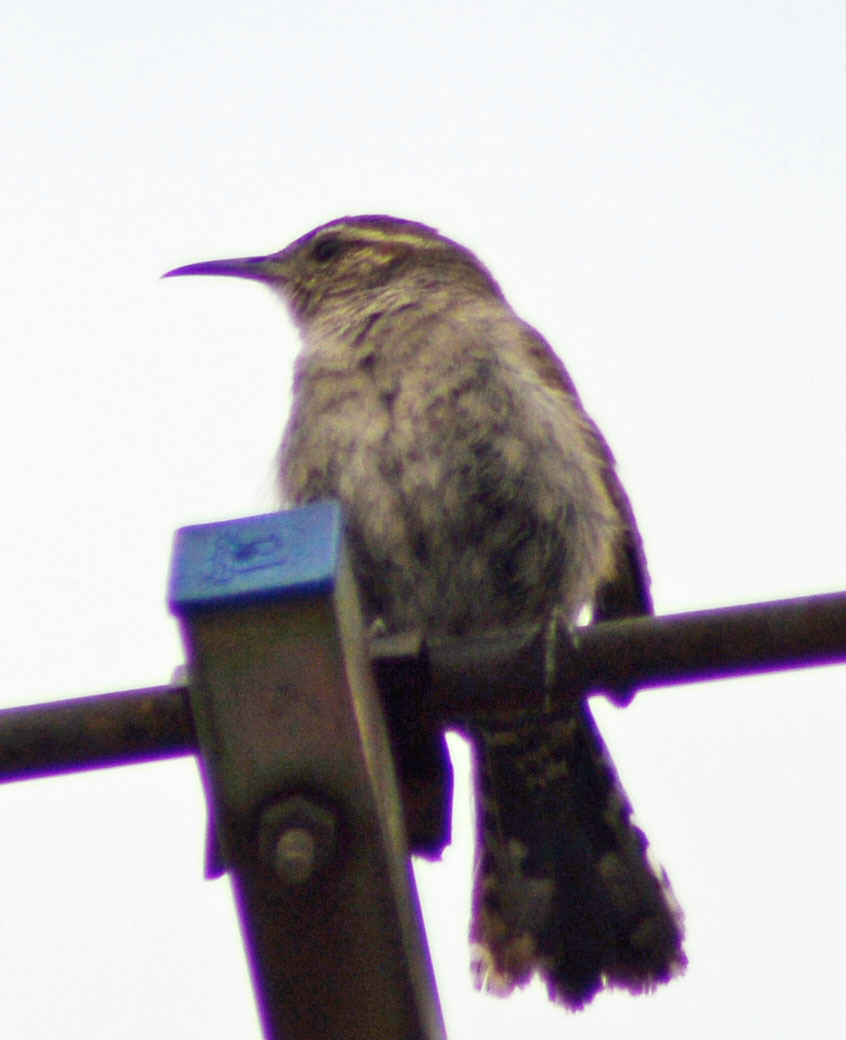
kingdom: Animalia
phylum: Chordata
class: Aves
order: Passeriformes
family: Troglodytidae
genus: Thryomanes
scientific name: Thryomanes bewickii
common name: Bewick's wren
